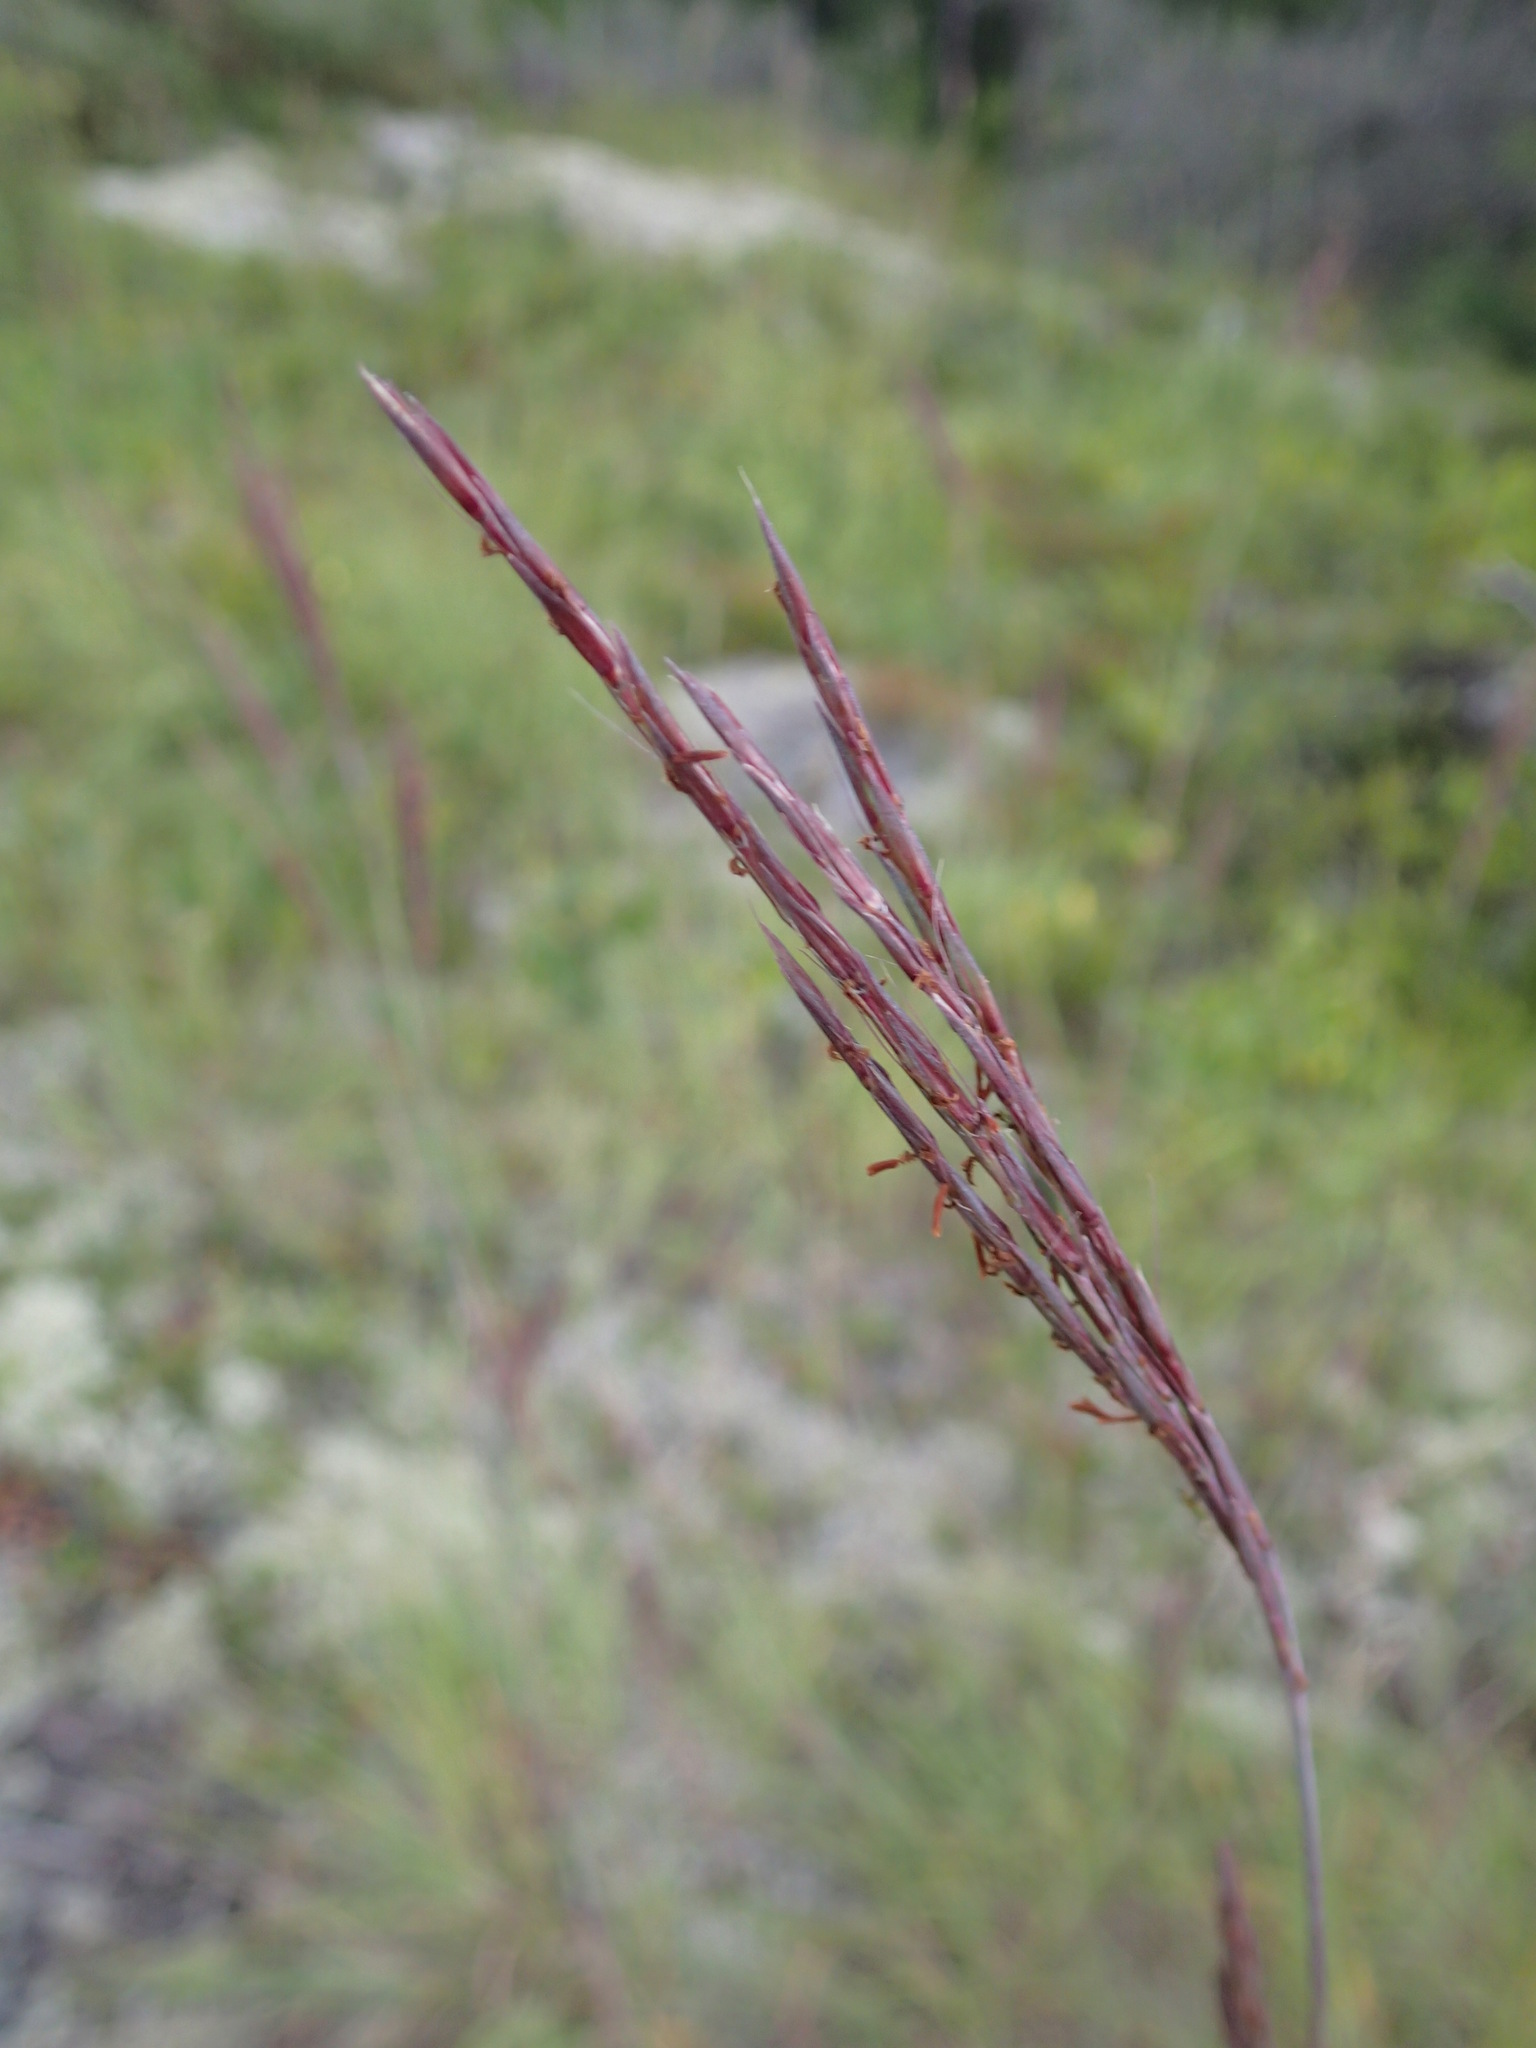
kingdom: Plantae
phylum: Tracheophyta
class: Liliopsida
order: Poales
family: Poaceae
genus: Andropogon
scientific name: Andropogon gerardi
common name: Big bluestem
